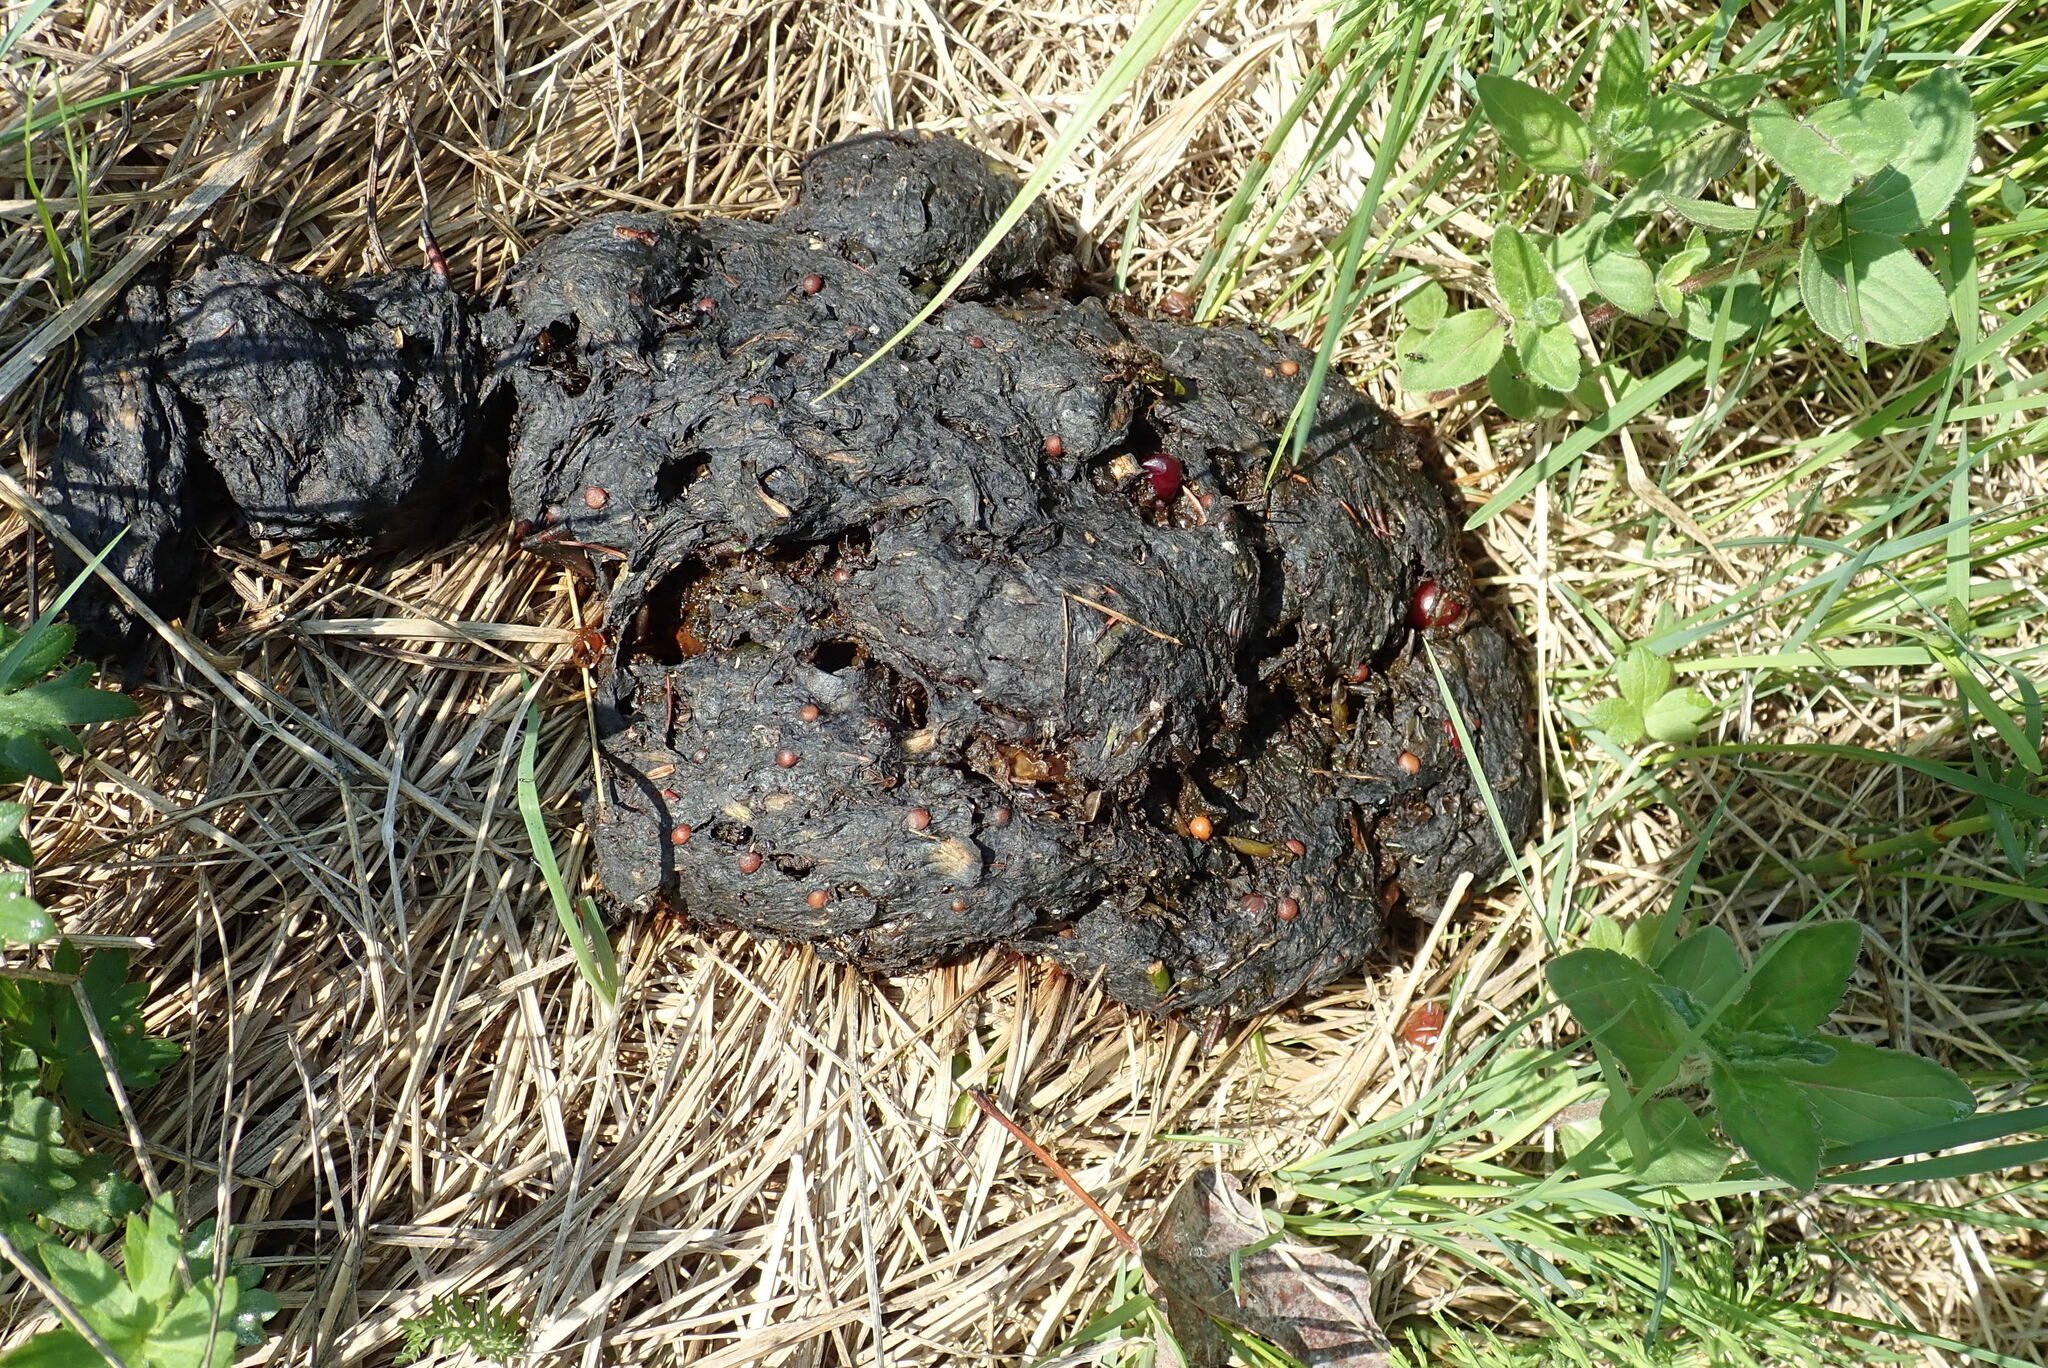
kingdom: Animalia
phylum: Chordata
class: Mammalia
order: Carnivora
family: Ursidae
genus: Ursus
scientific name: Ursus americanus
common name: American black bear
